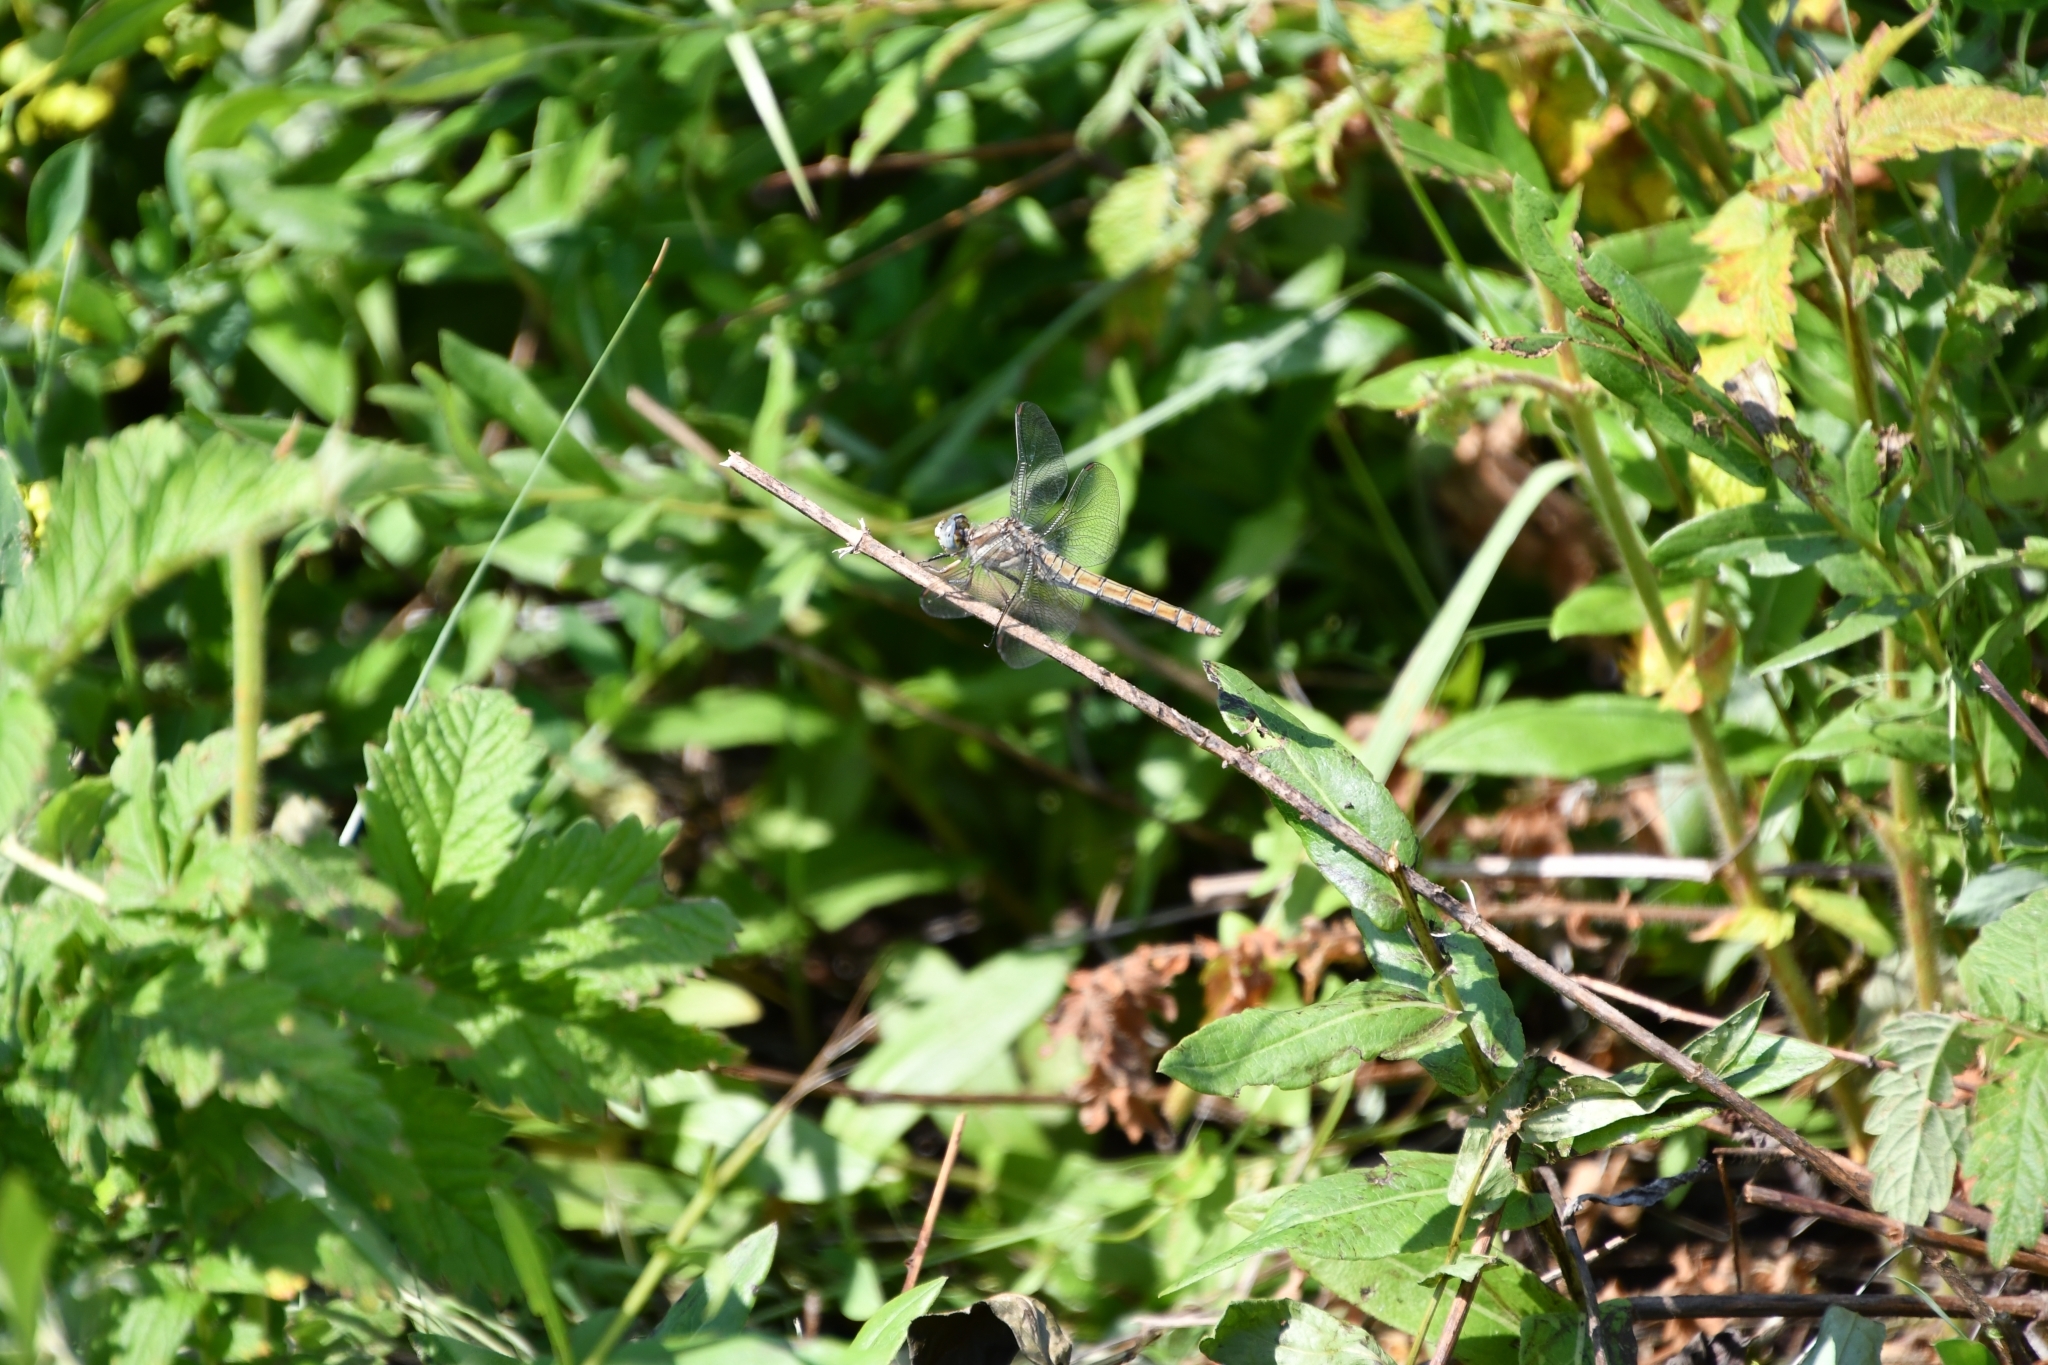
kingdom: Animalia
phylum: Arthropoda
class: Insecta
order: Odonata
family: Libellulidae
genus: Orthetrum
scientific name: Orthetrum brunneum
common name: Southern skimmer
